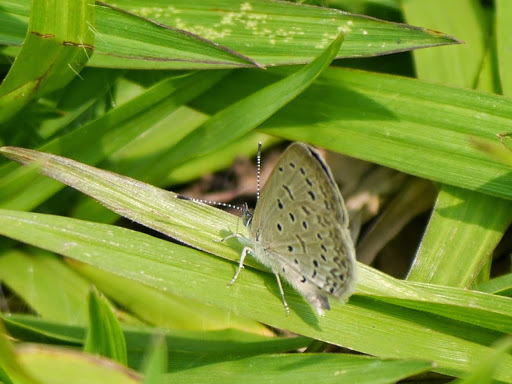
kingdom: Animalia
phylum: Arthropoda
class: Insecta
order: Lepidoptera
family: Lycaenidae
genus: Zizeeria
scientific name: Zizeeria knysna
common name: African grass blue
